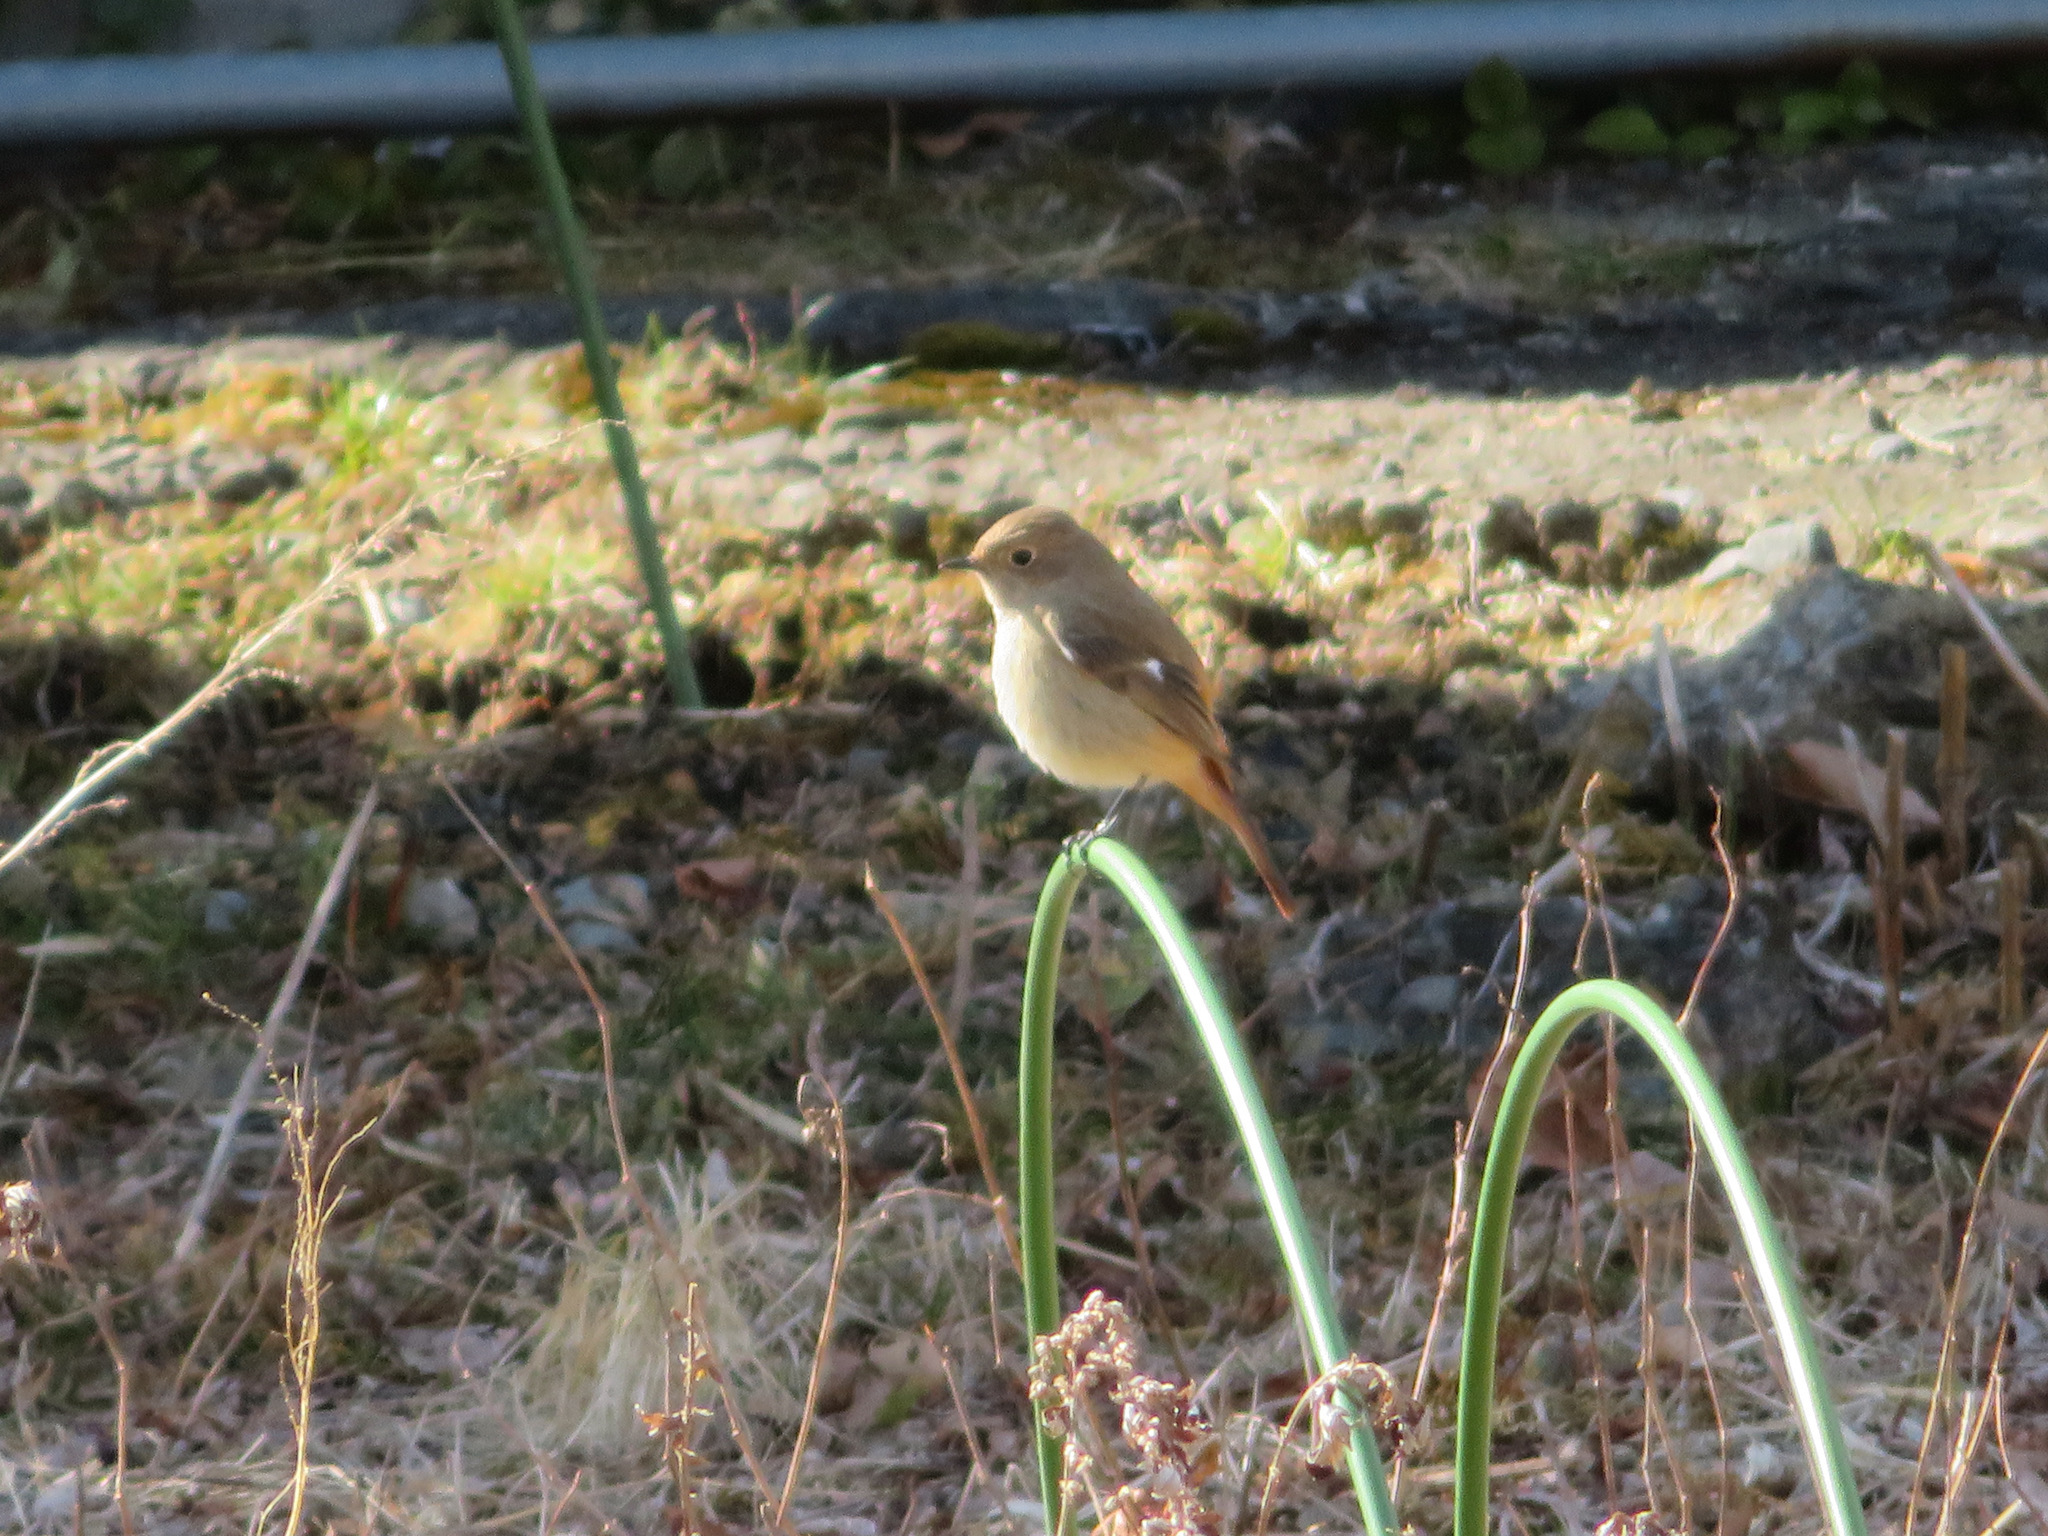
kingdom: Animalia
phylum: Chordata
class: Aves
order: Passeriformes
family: Muscicapidae
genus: Phoenicurus
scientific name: Phoenicurus auroreus
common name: Daurian redstart
